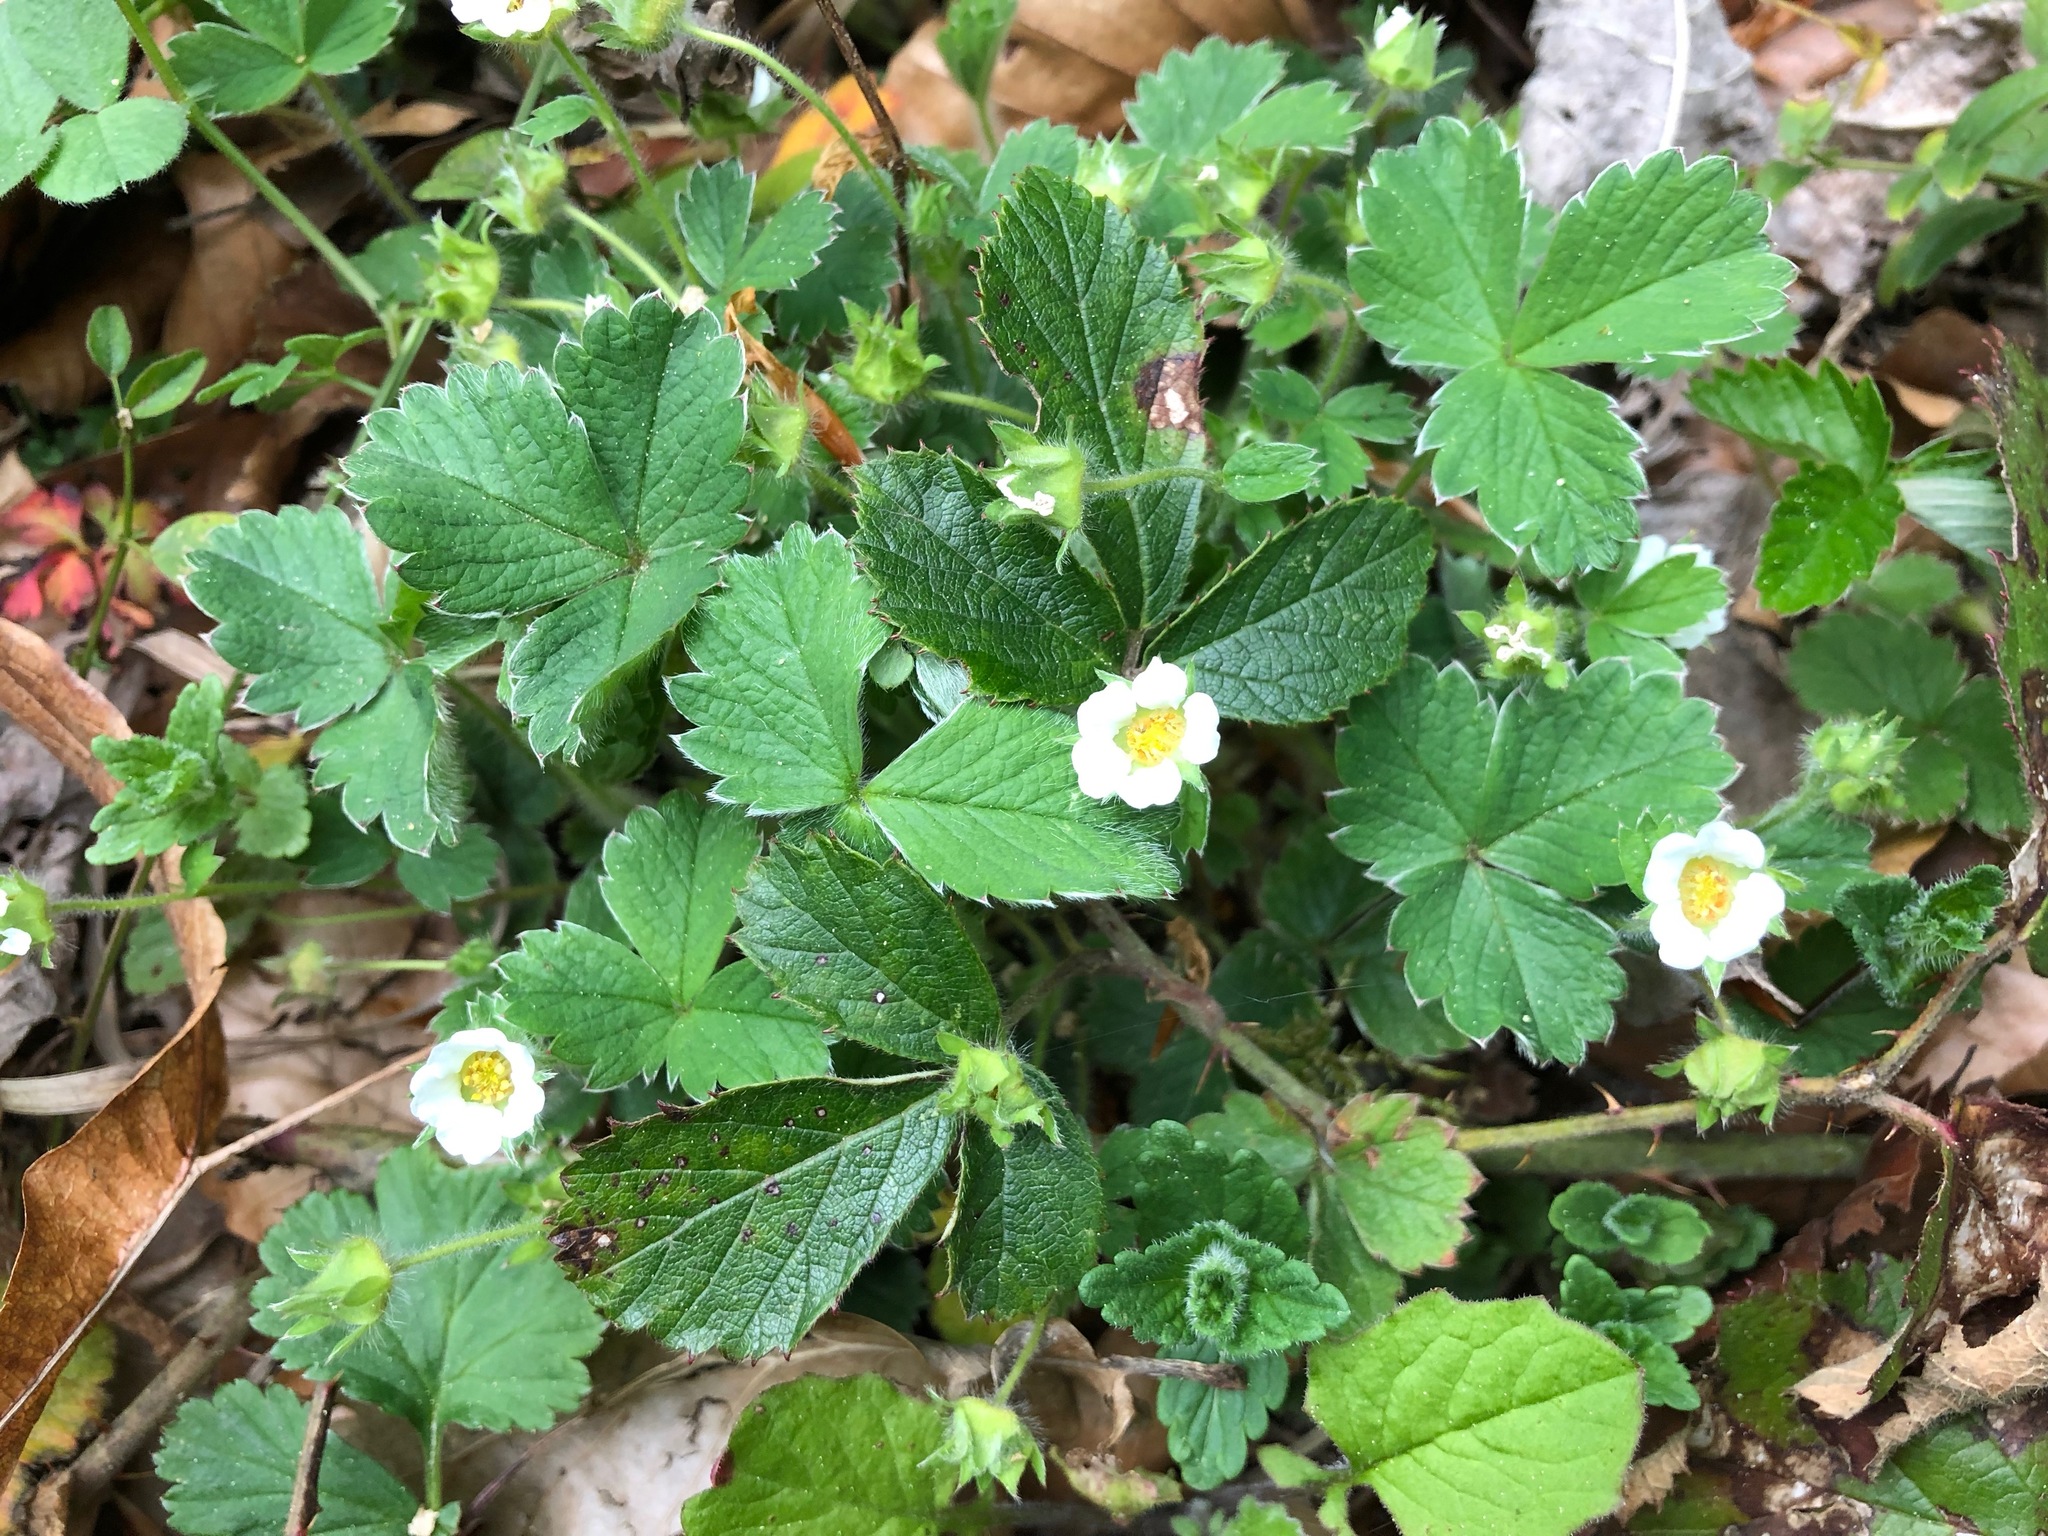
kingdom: Plantae
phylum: Tracheophyta
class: Magnoliopsida
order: Rosales
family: Rosaceae
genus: Potentilla
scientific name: Potentilla sterilis
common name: Barren strawberry
